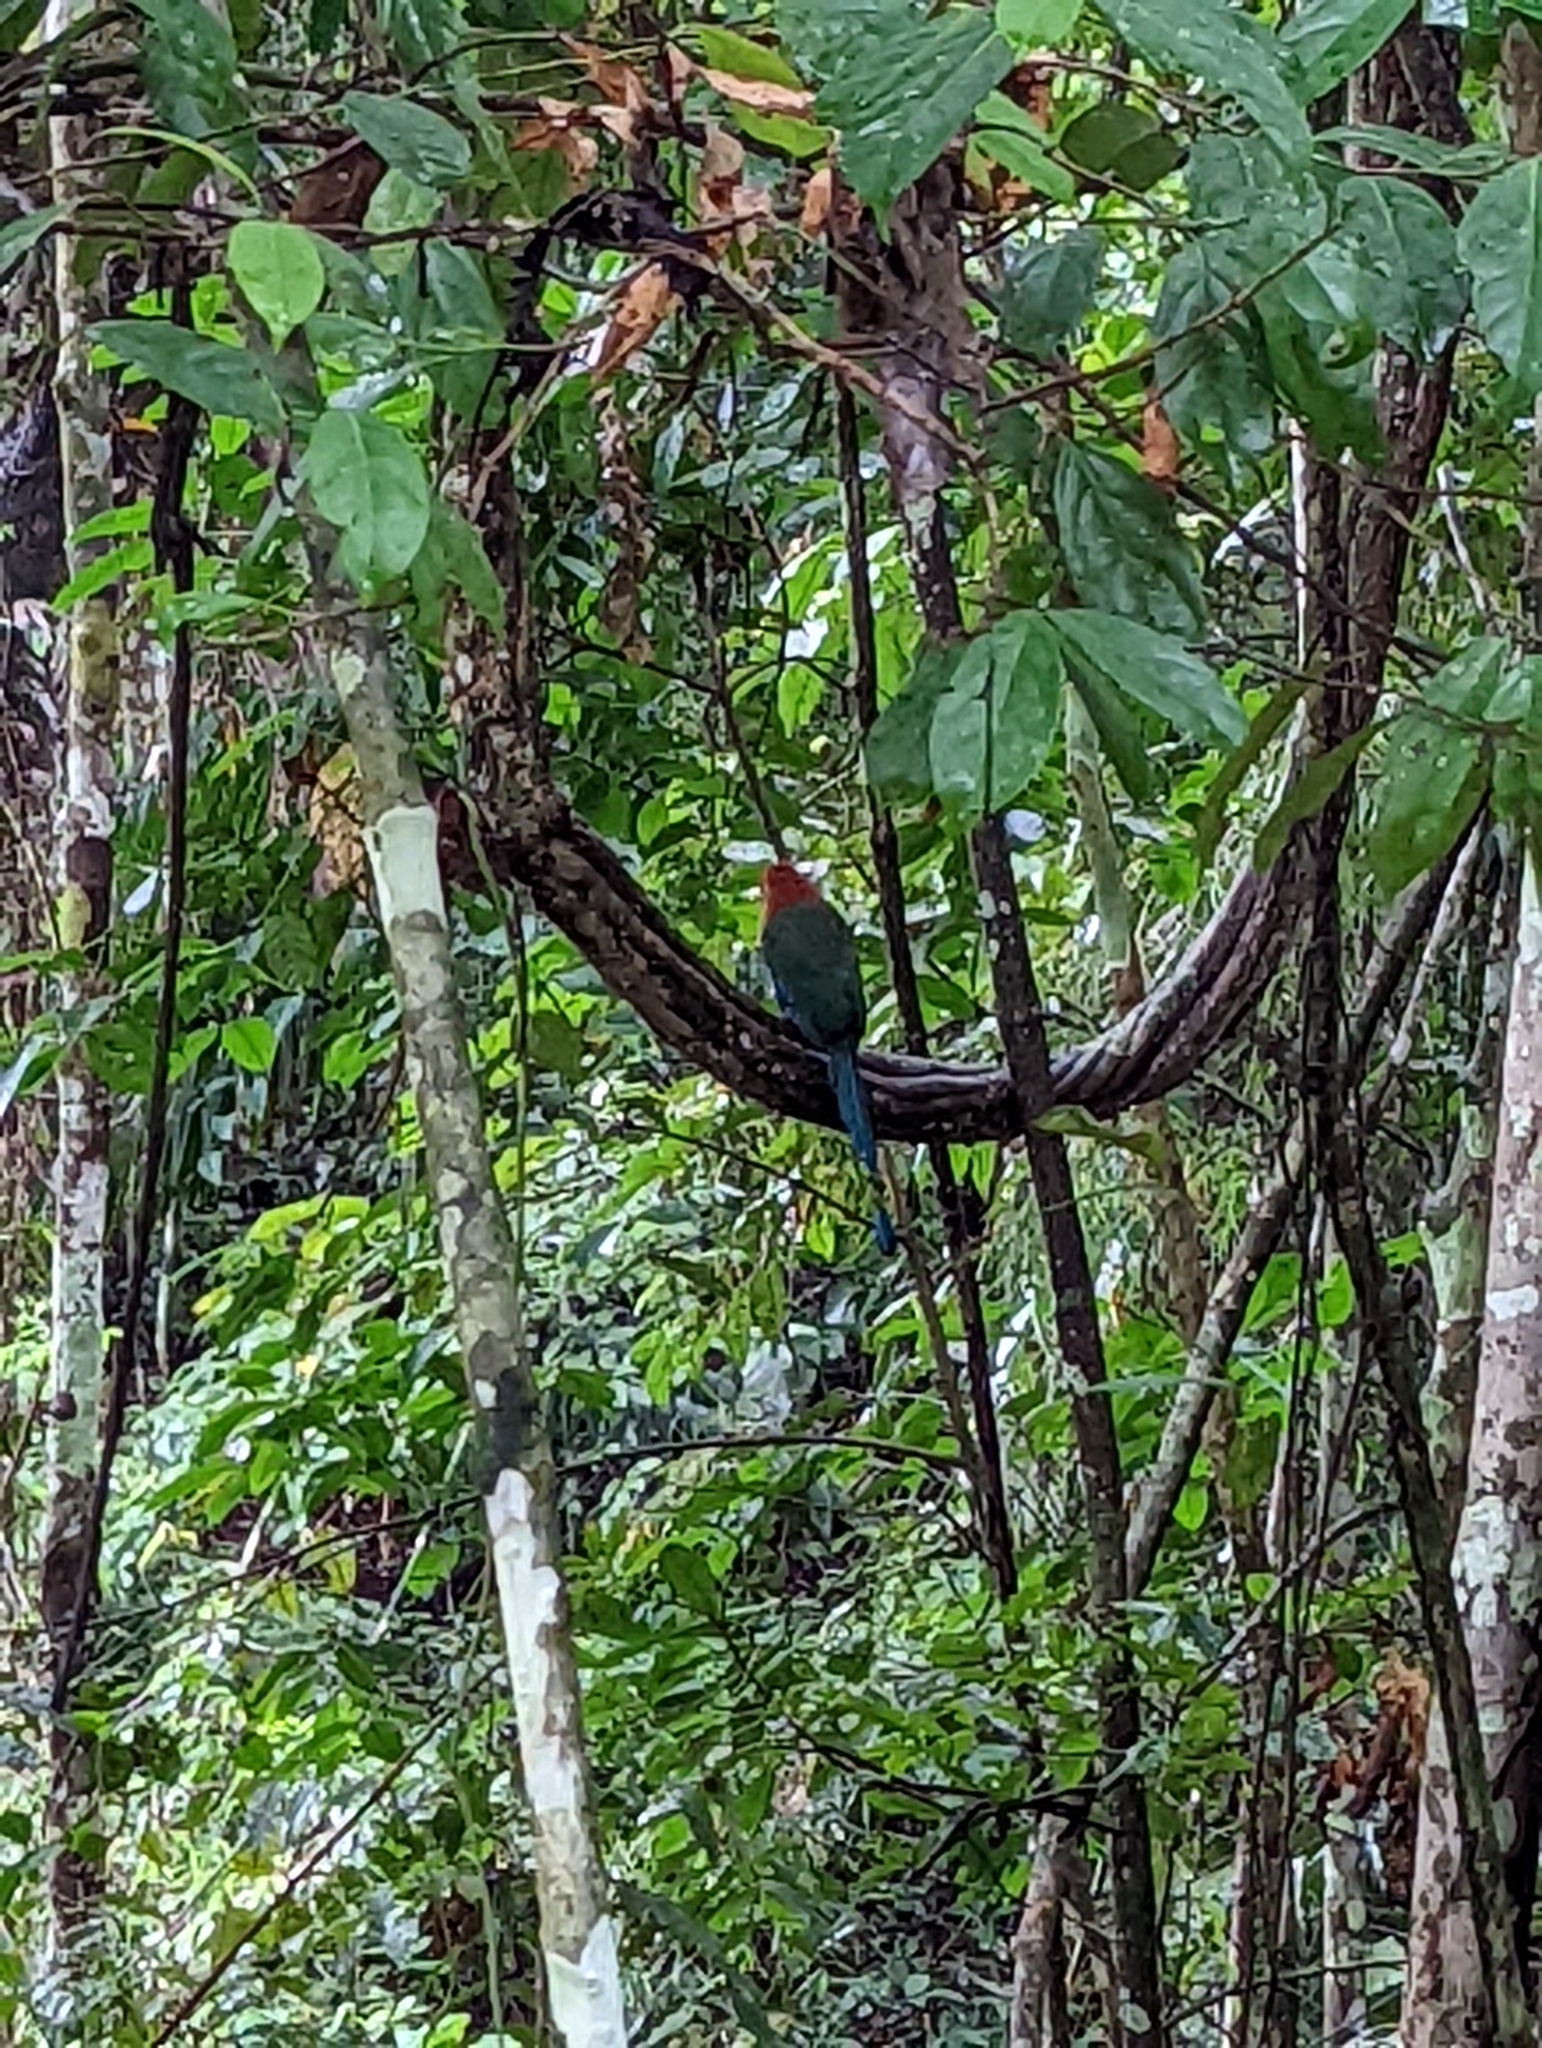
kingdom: Animalia
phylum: Chordata
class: Aves
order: Coraciiformes
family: Momotidae
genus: Baryphthengus
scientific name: Baryphthengus martii
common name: Rufous motmot
